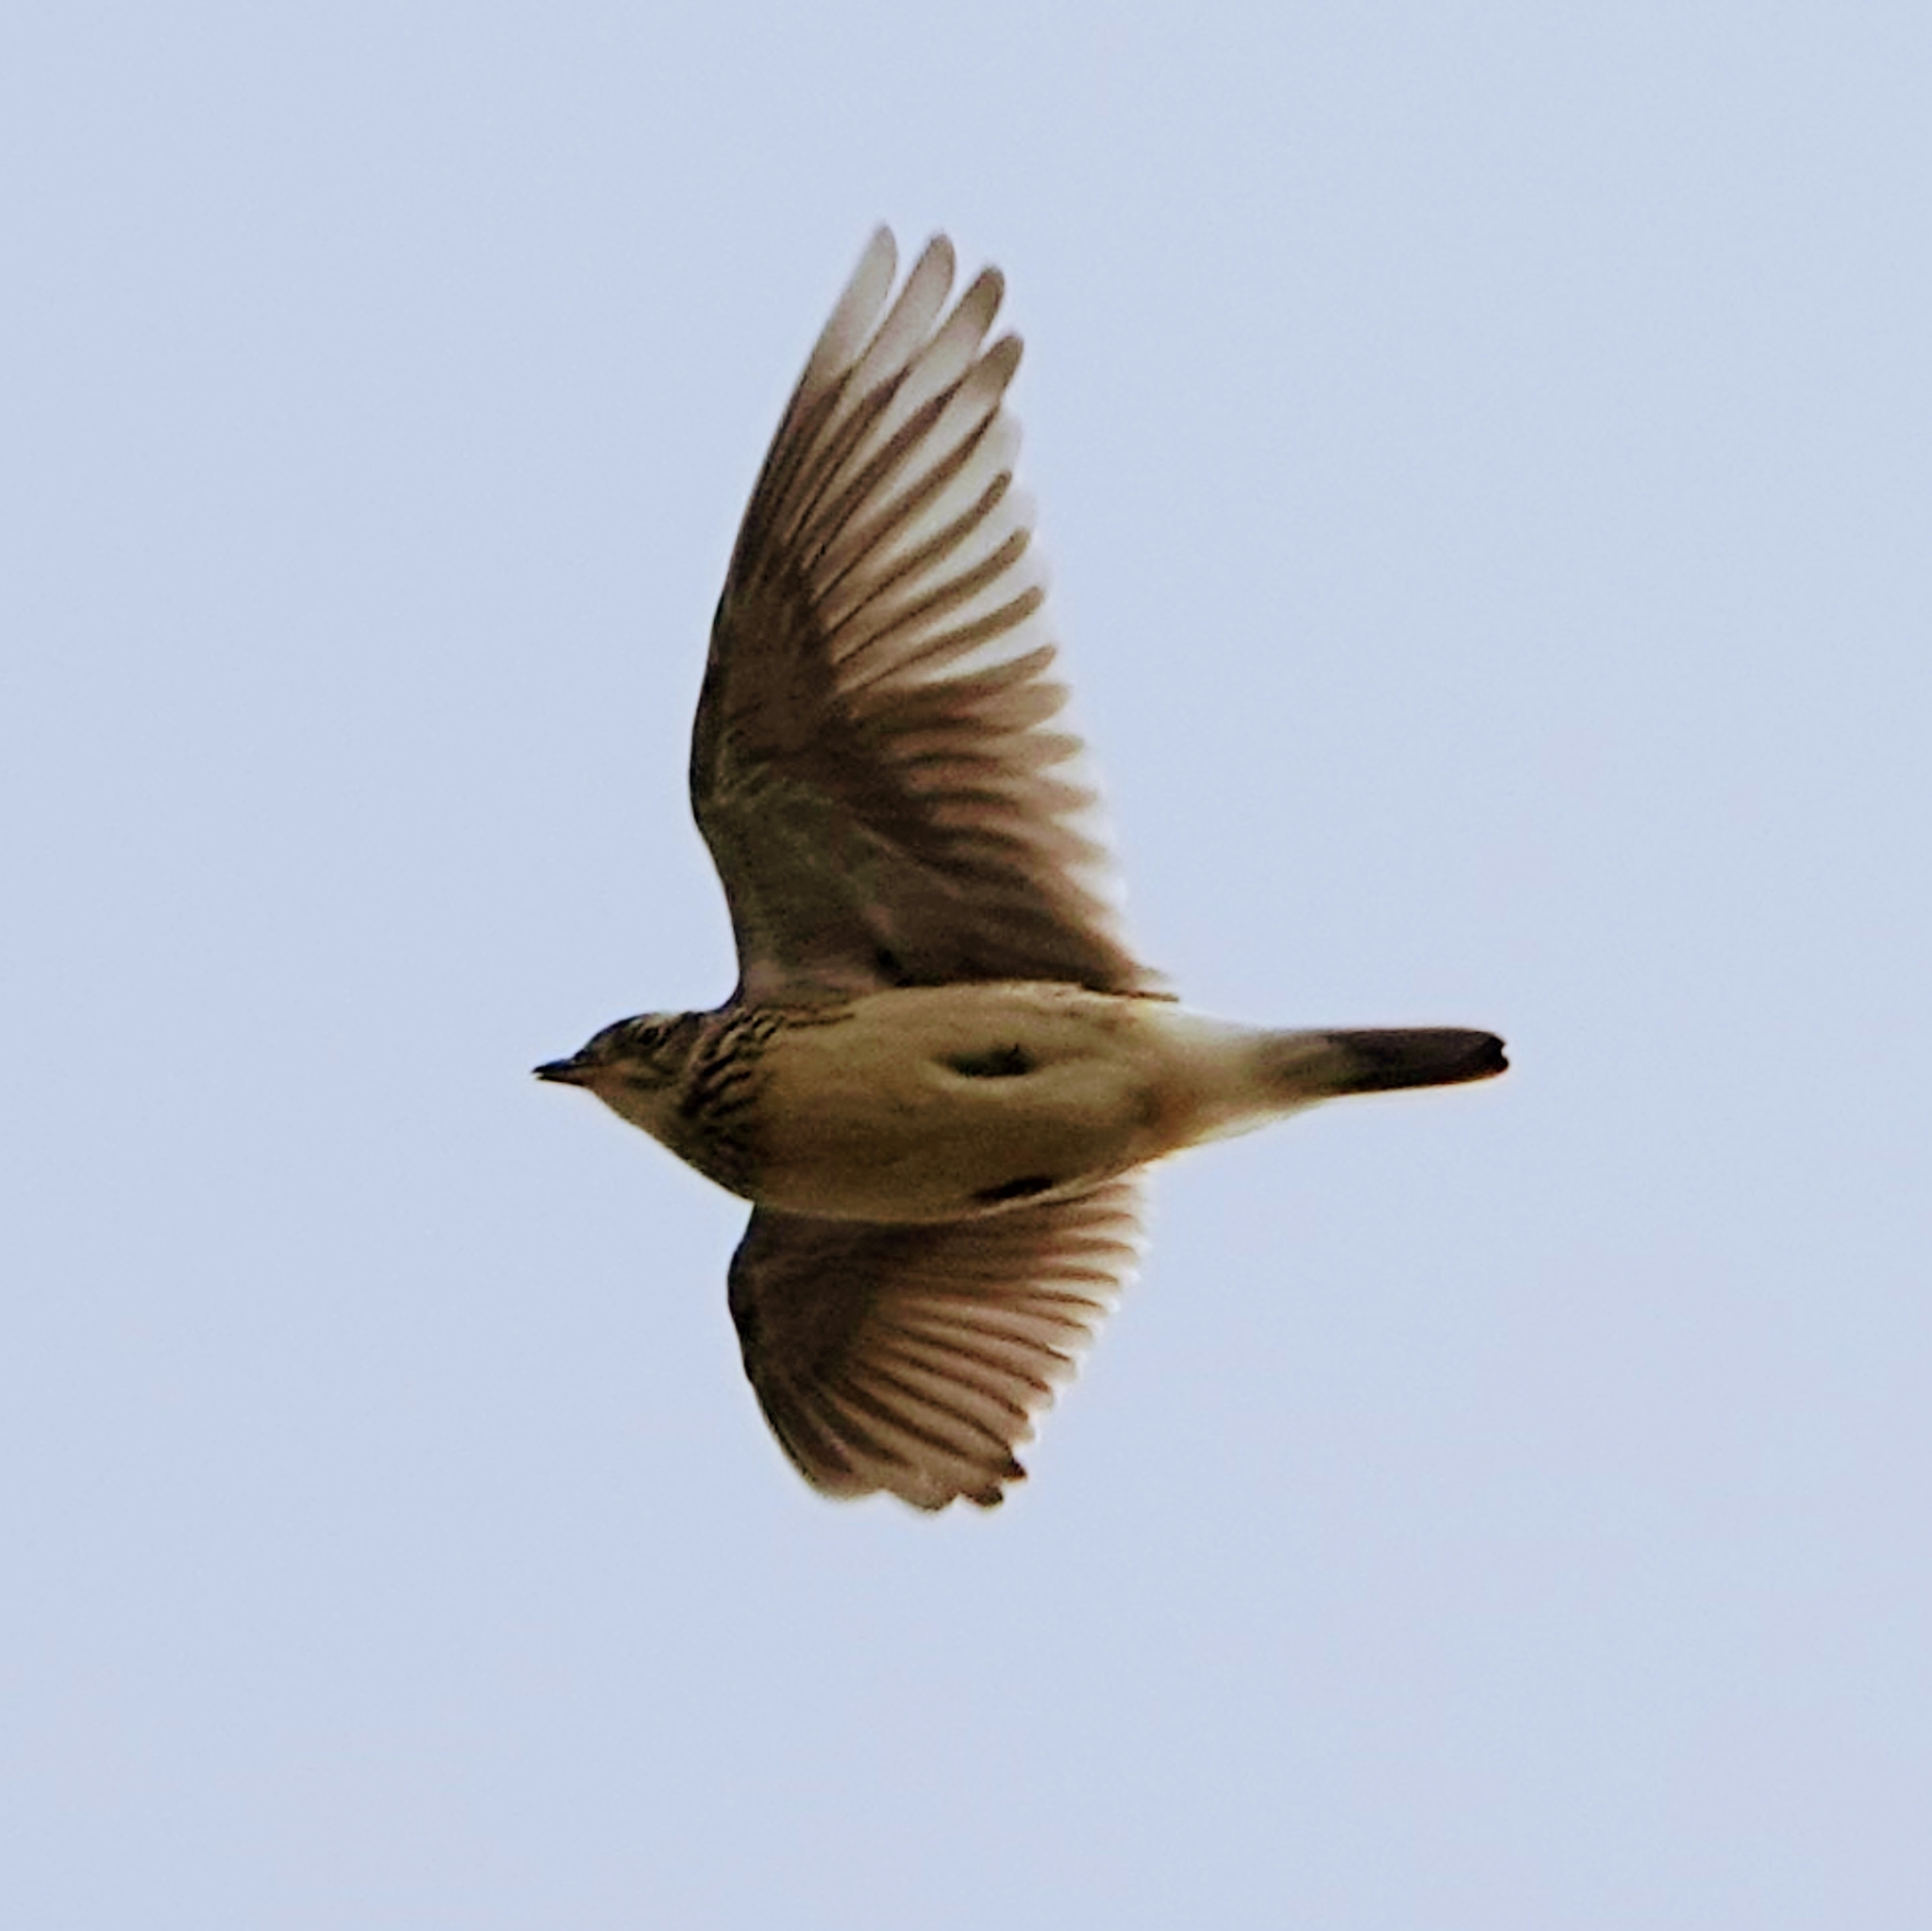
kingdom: Animalia
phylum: Chordata
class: Aves
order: Passeriformes
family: Alaudidae
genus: Alauda
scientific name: Alauda arvensis
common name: Eurasian skylark
